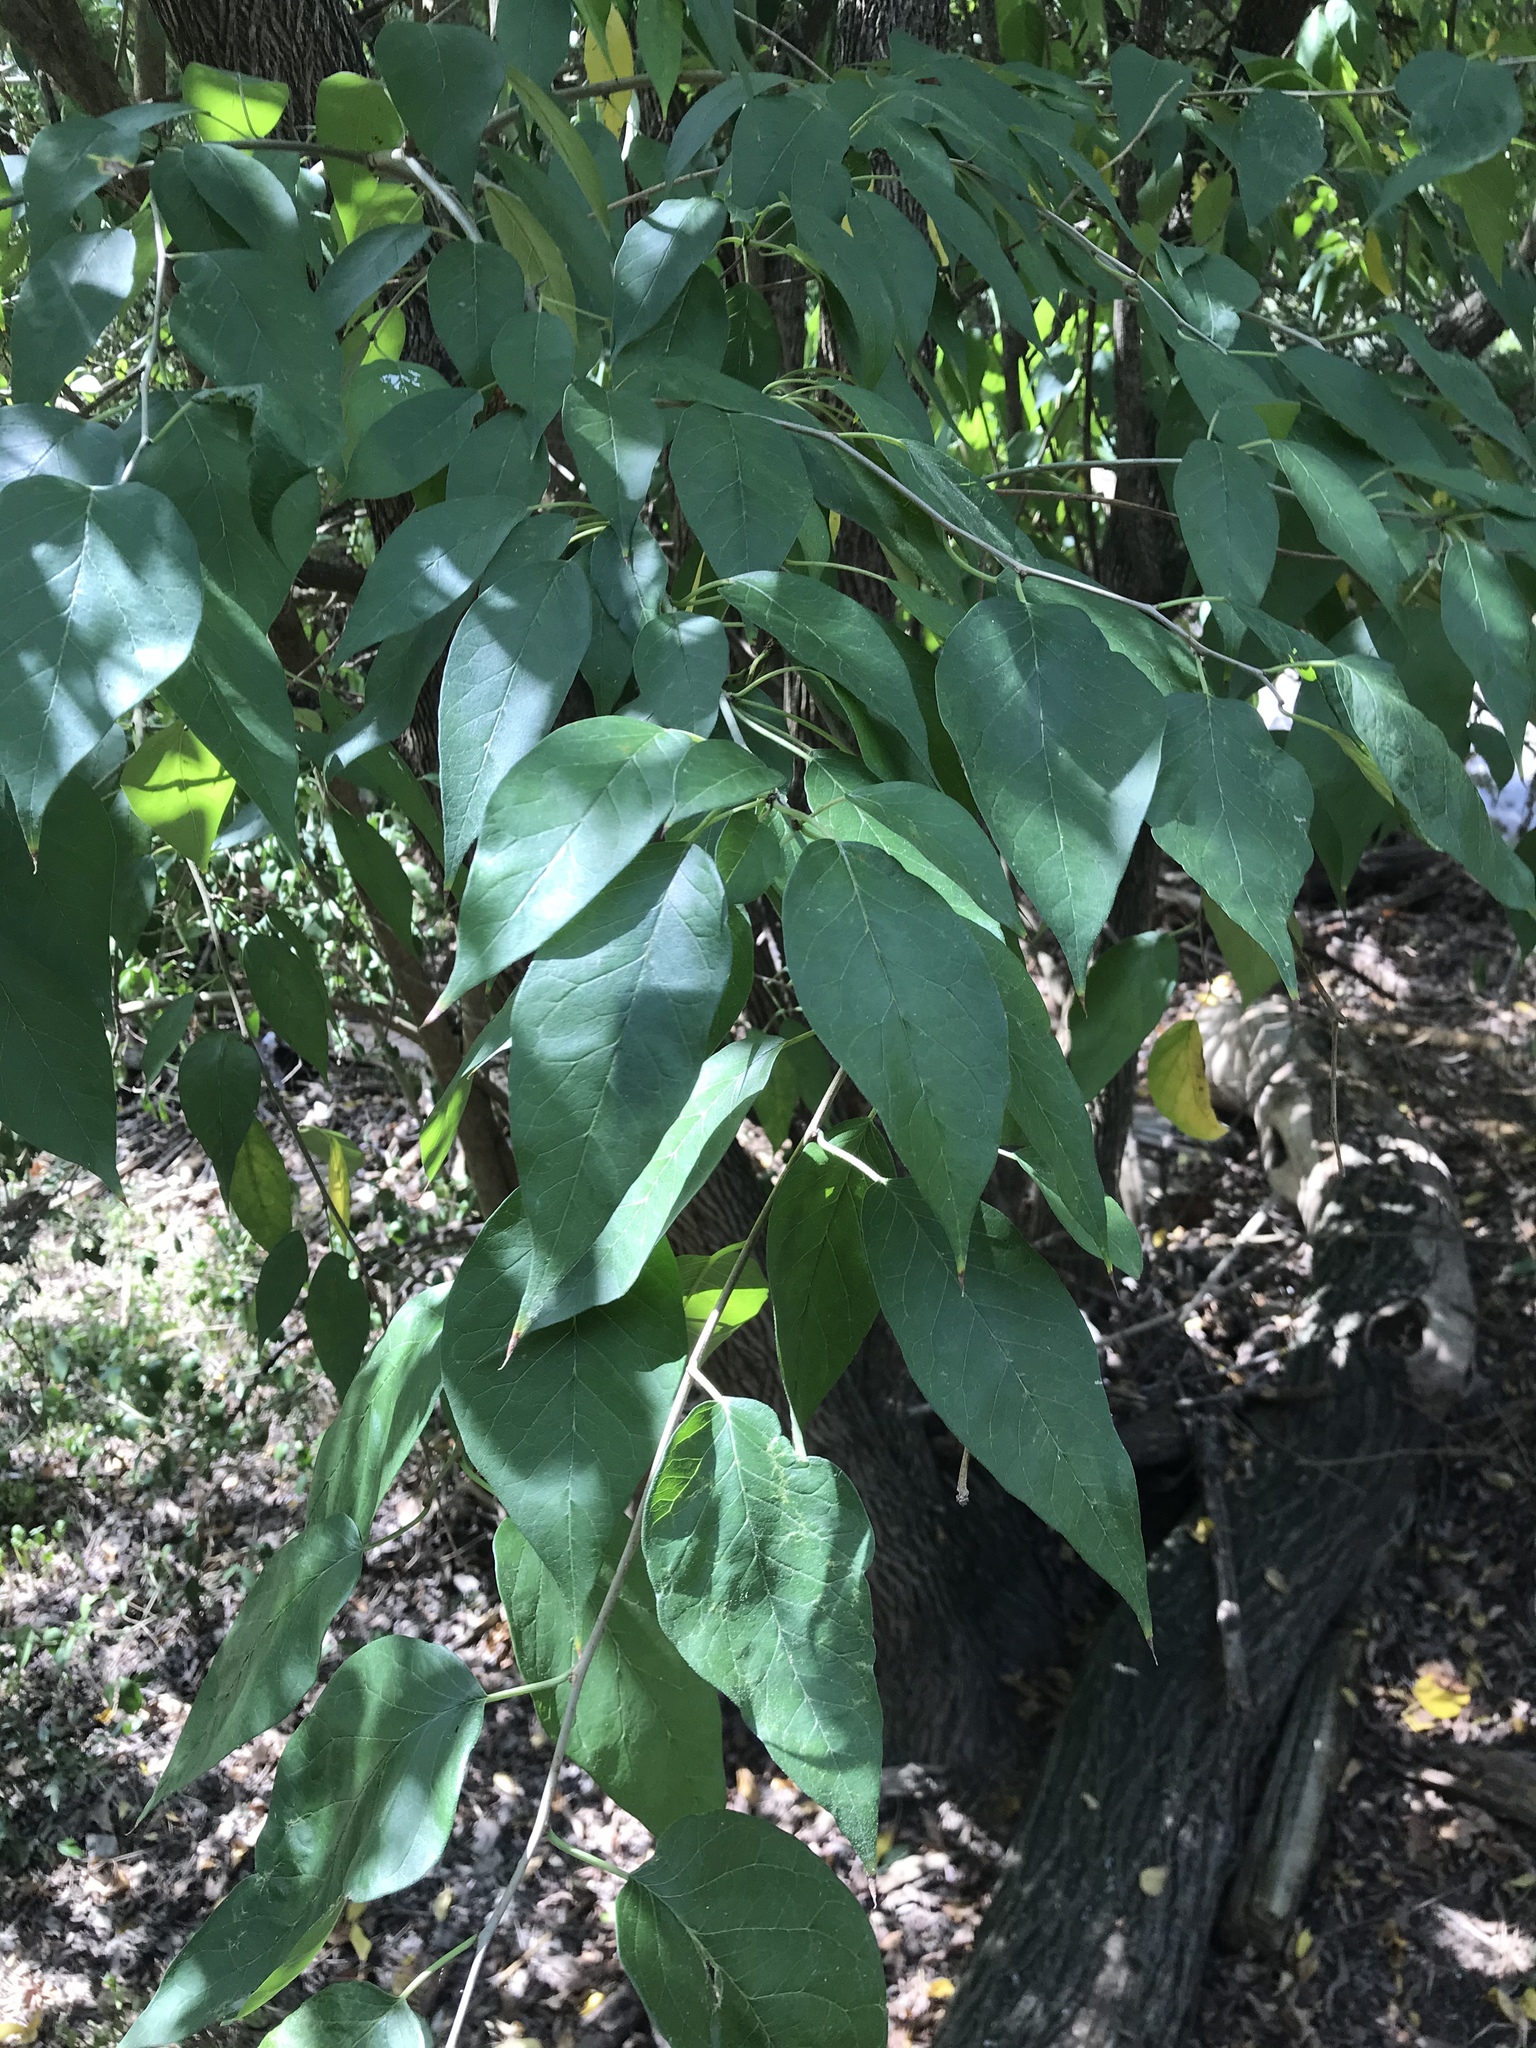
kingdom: Plantae
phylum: Tracheophyta
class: Magnoliopsida
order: Rosales
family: Moraceae
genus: Maclura
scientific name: Maclura pomifera
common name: Osage-orange
